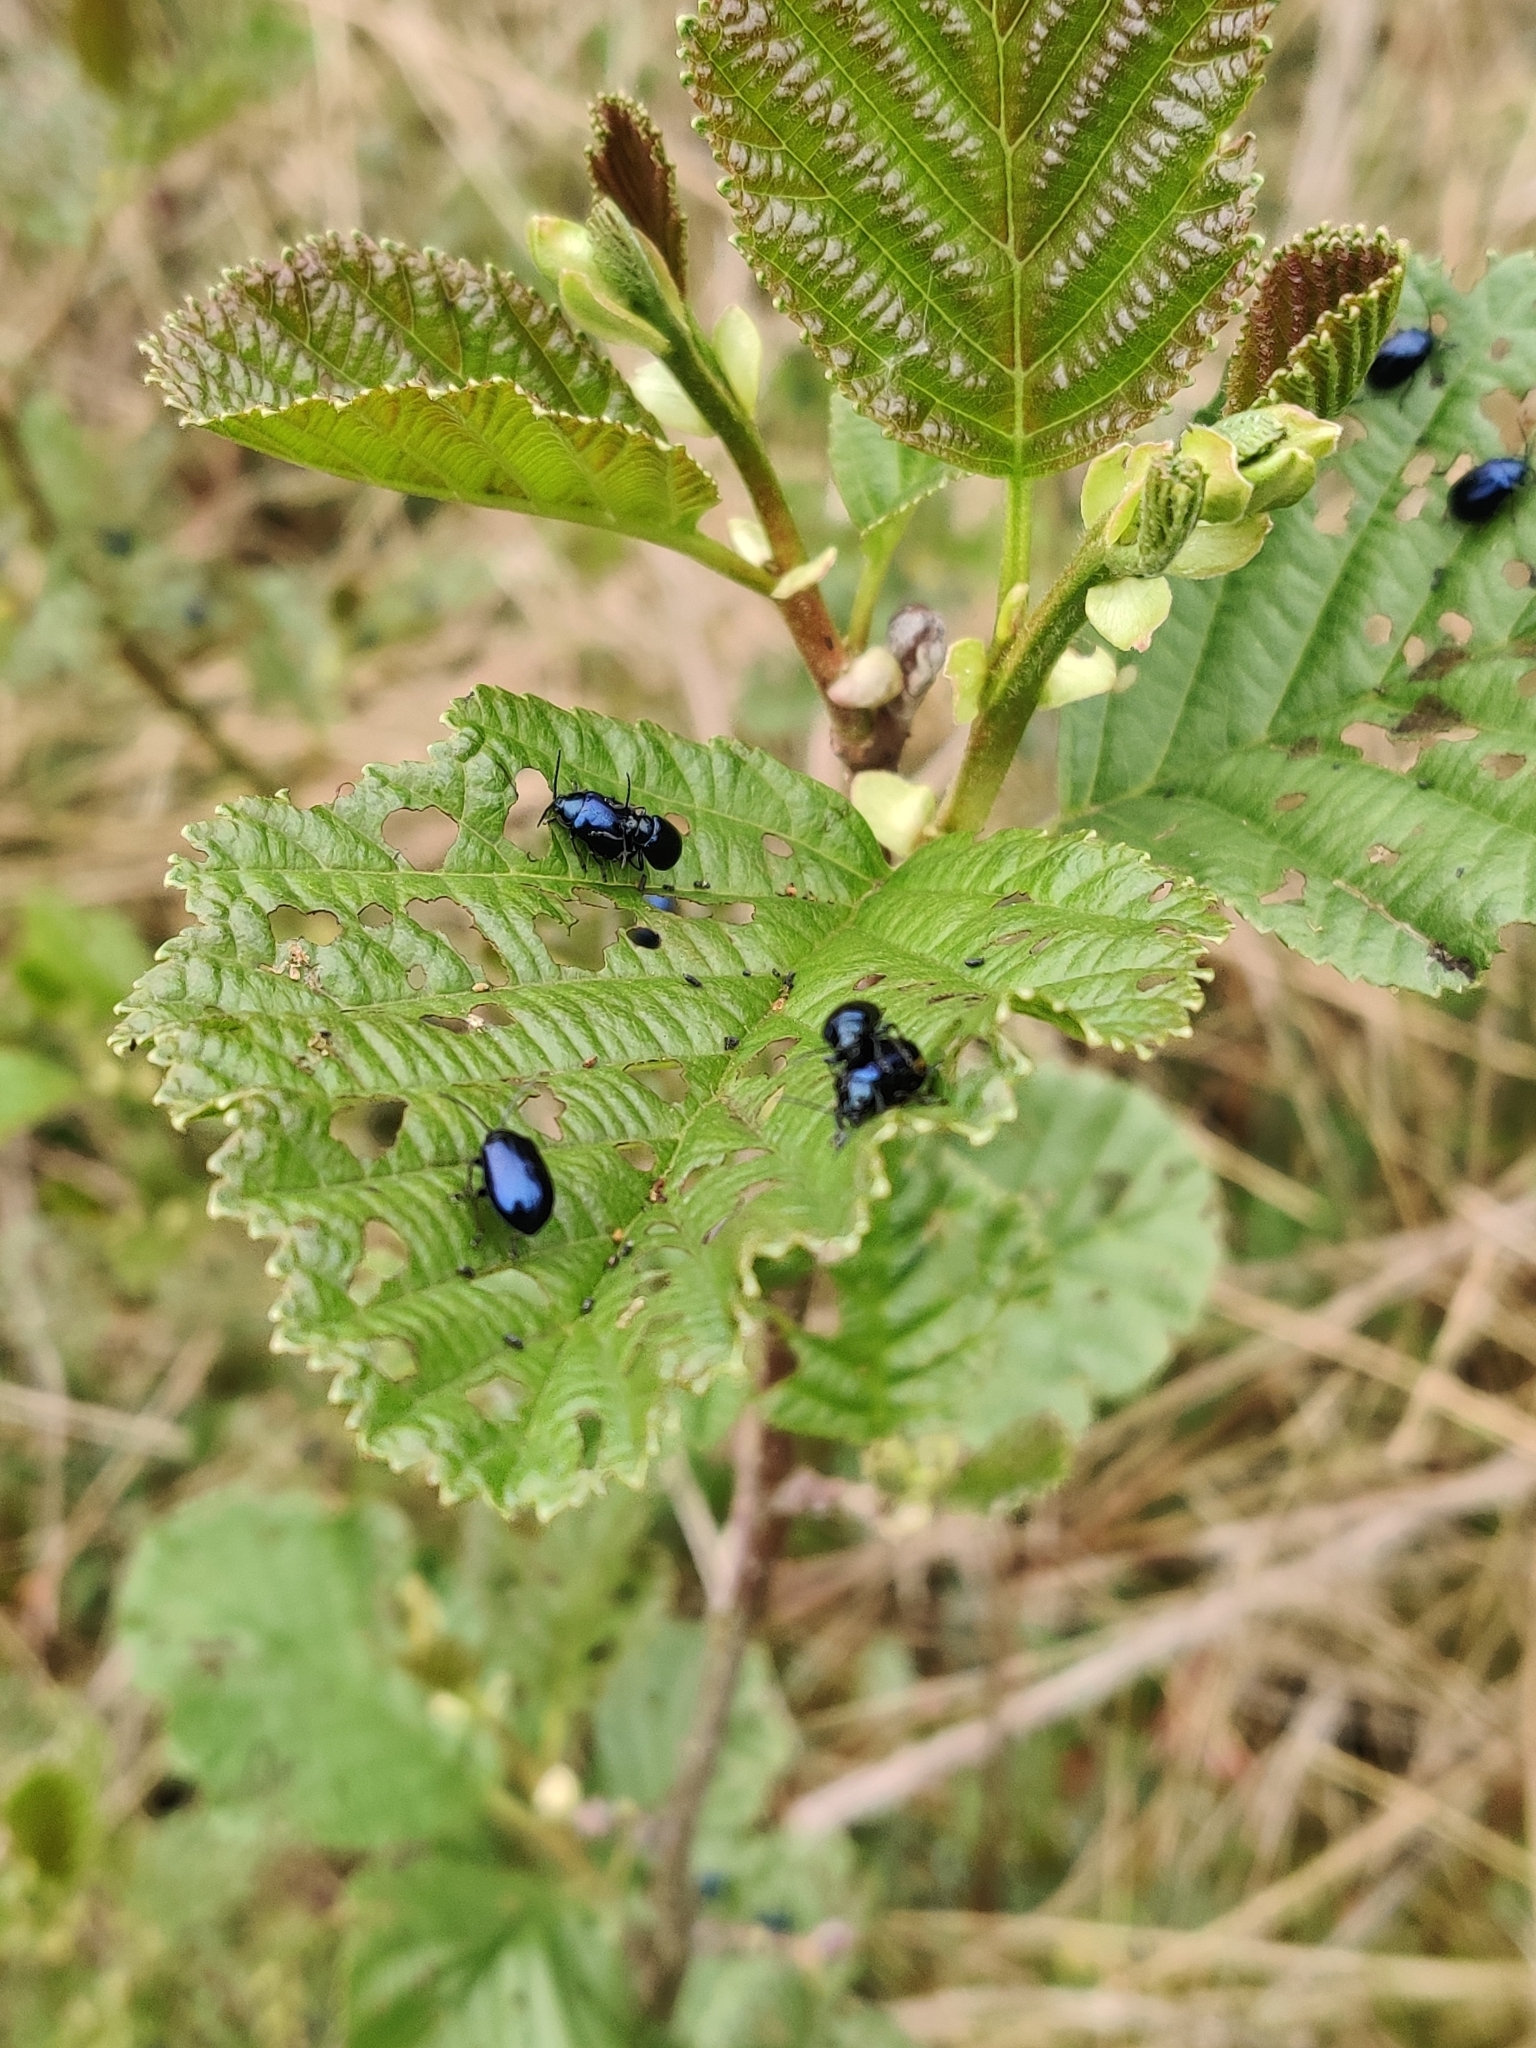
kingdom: Animalia
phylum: Arthropoda
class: Insecta
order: Coleoptera
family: Chrysomelidae
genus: Agelastica
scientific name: Agelastica alni
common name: Alder leaf beetle
